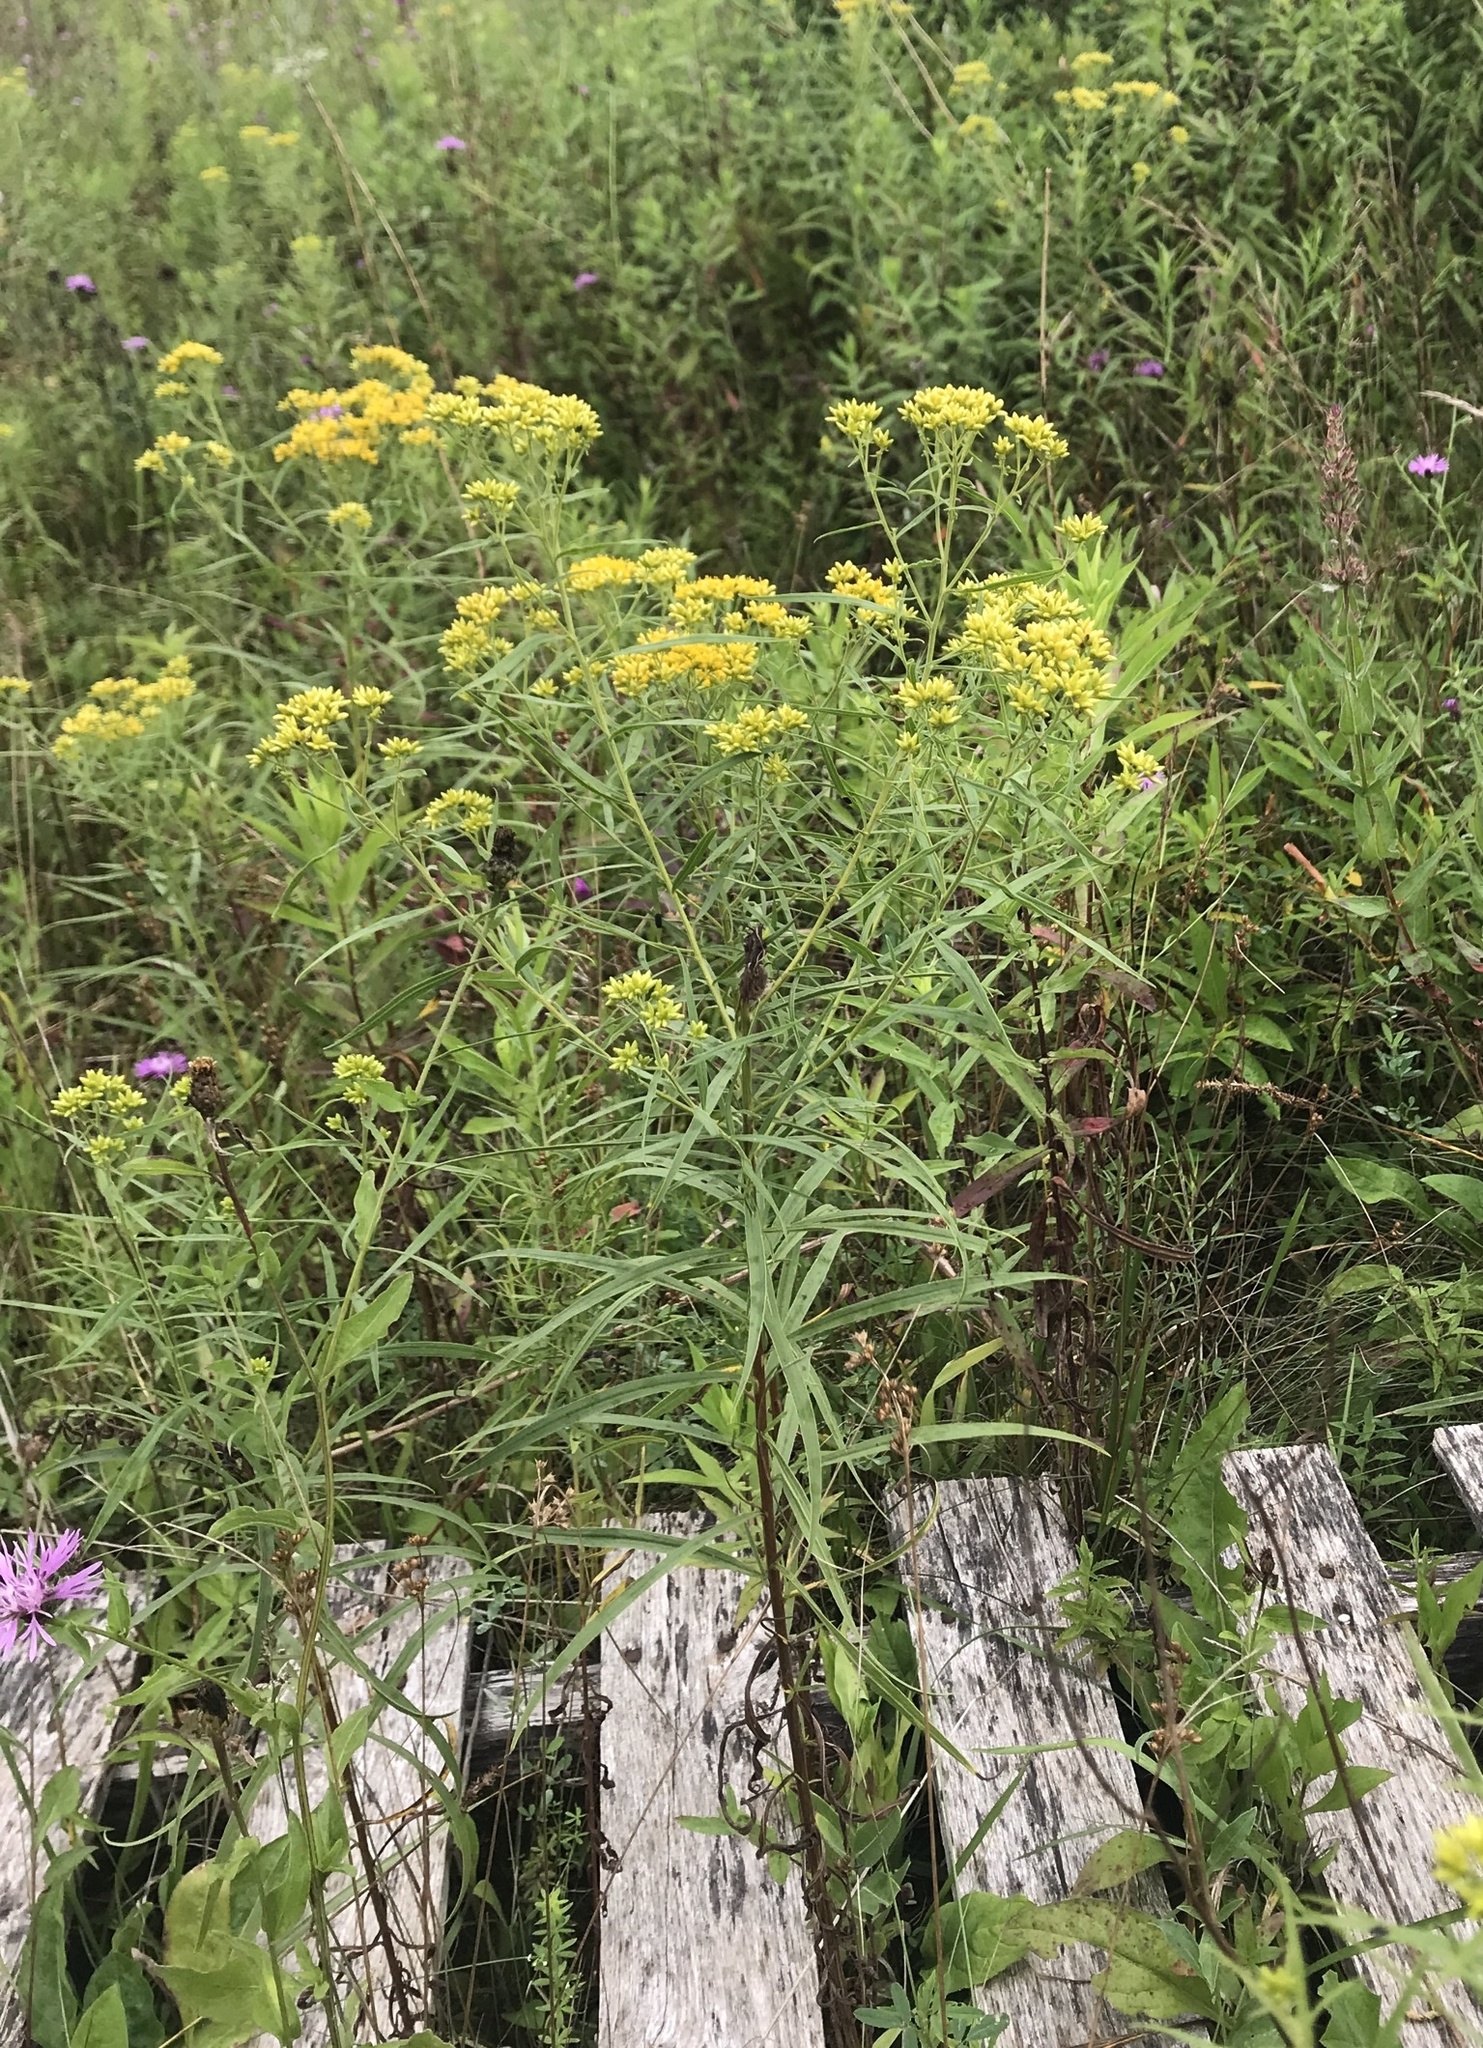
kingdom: Plantae
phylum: Tracheophyta
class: Magnoliopsida
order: Asterales
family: Asteraceae
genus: Euthamia
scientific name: Euthamia graminifolia
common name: Common goldentop
